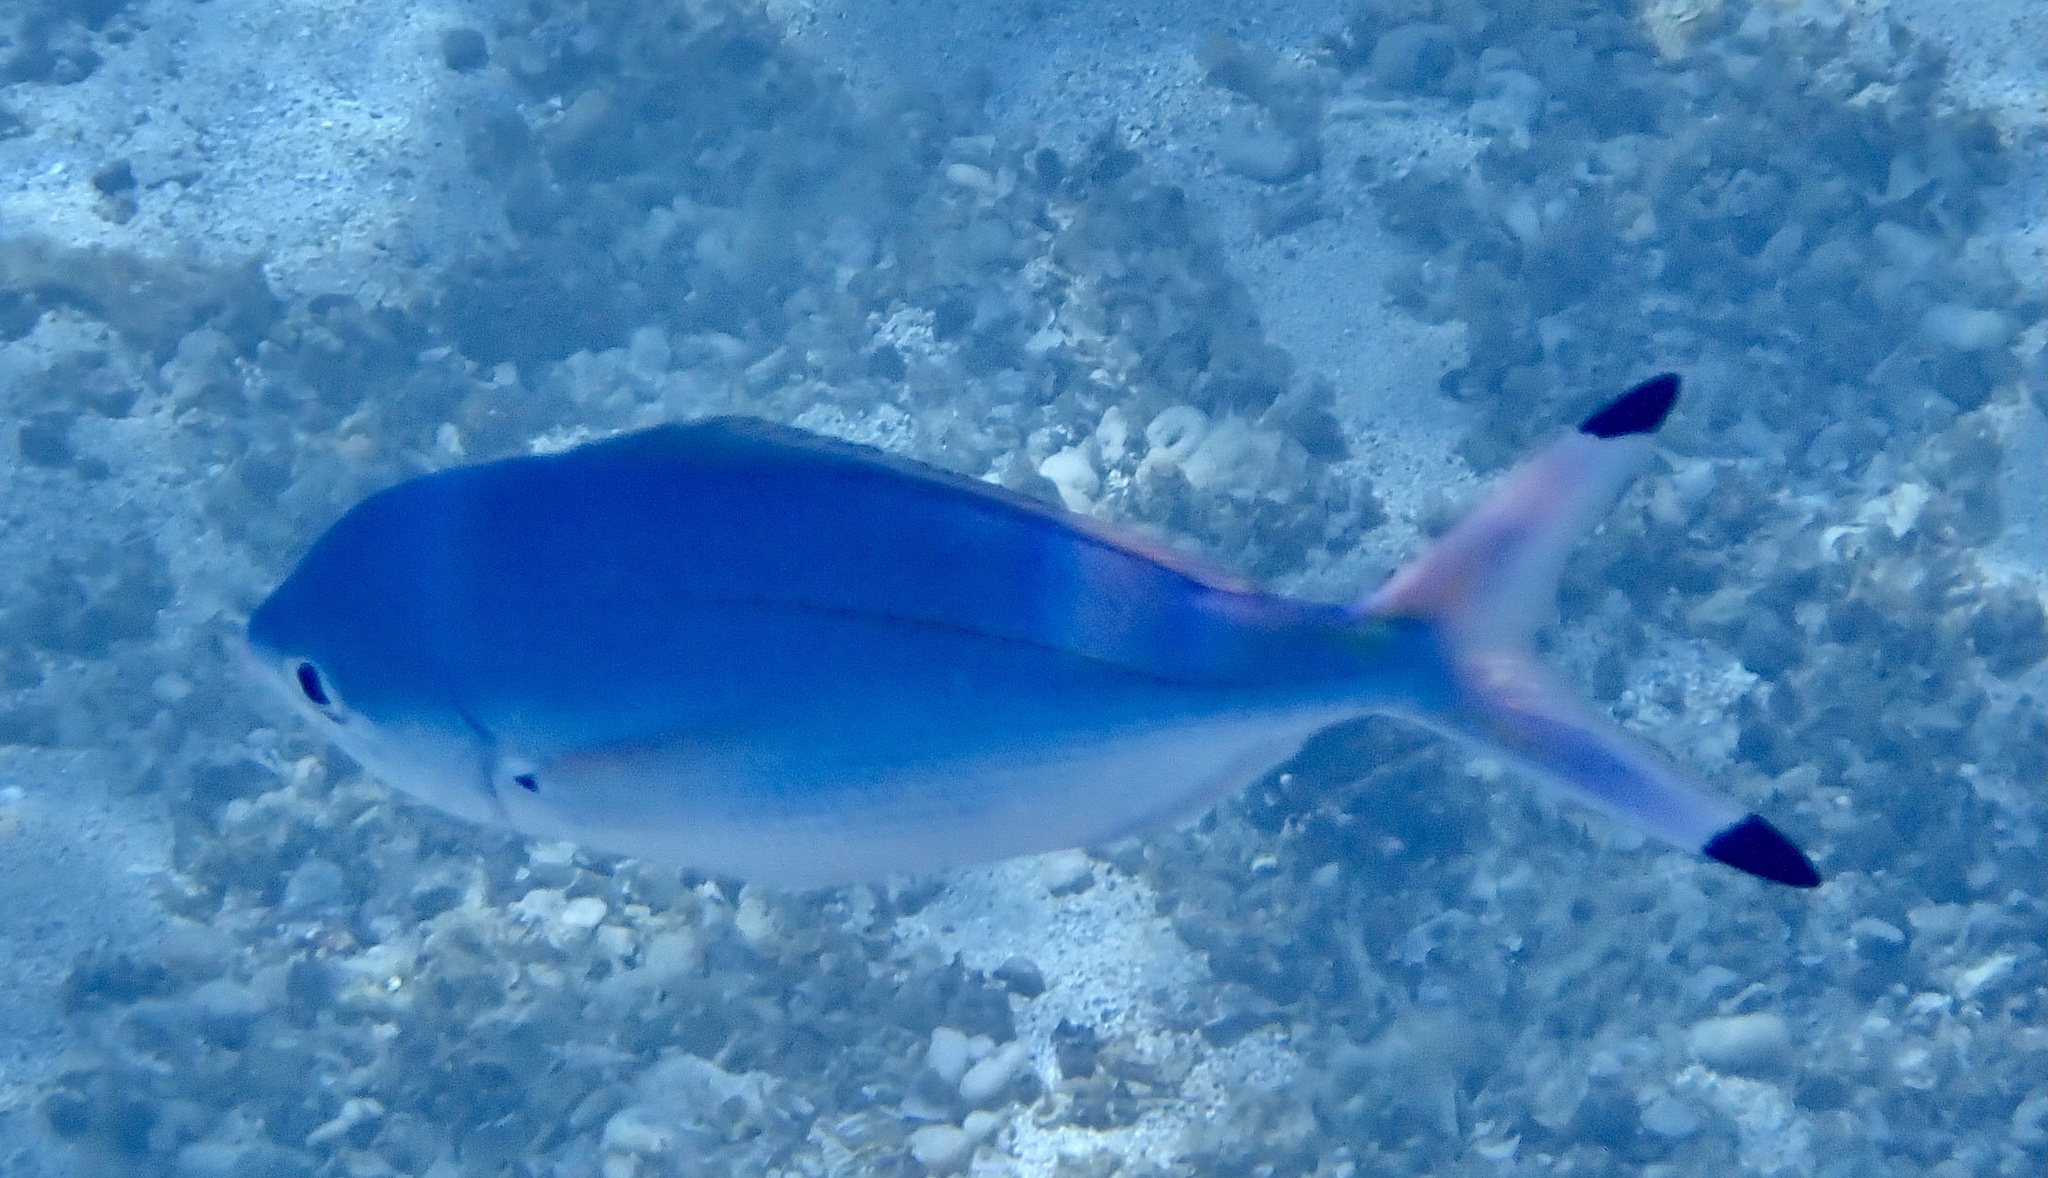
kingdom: Animalia
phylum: Chordata
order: Perciformes
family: Caesionidae
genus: Caesio
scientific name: Caesio lunaris
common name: Blue fusilier
